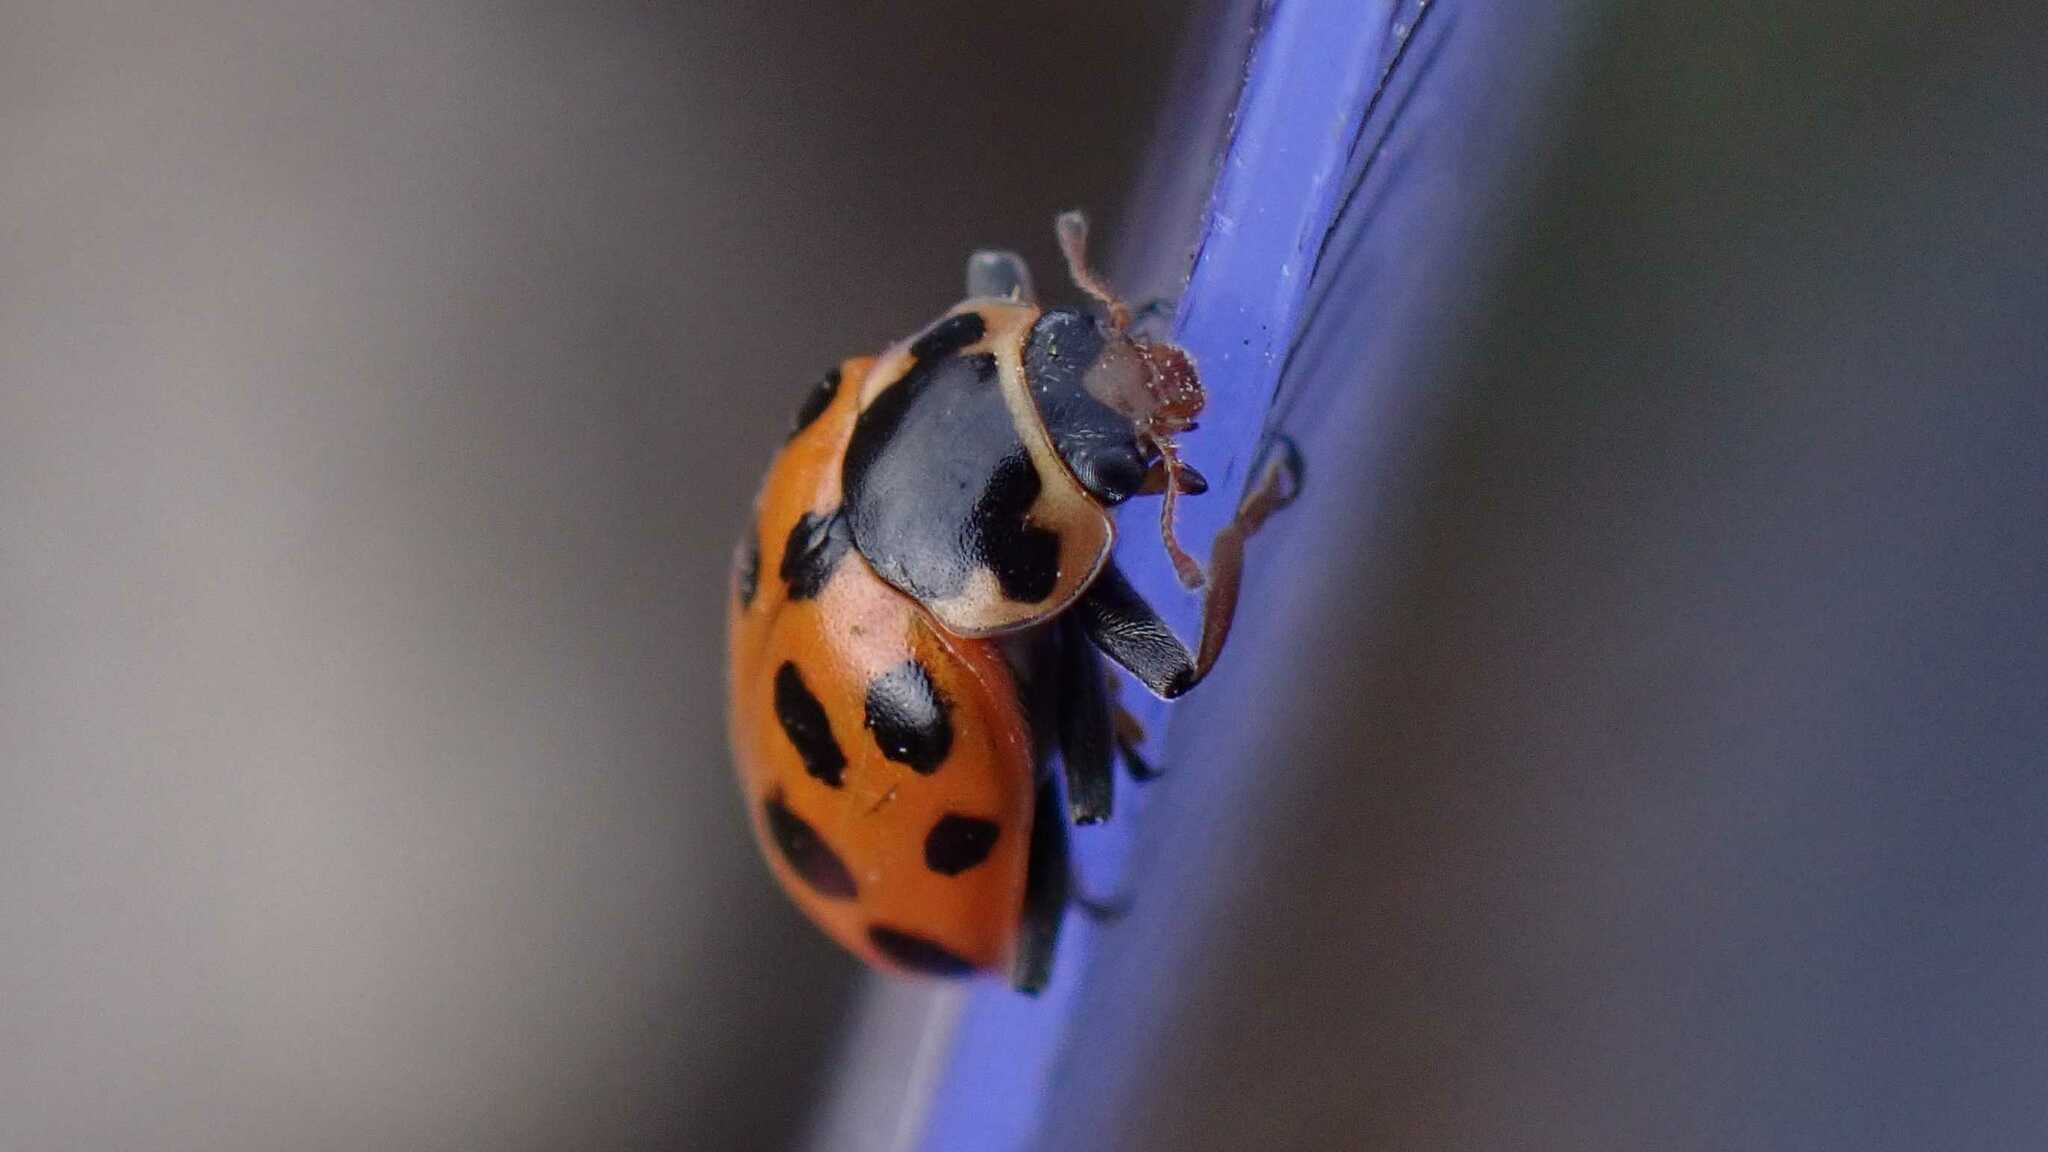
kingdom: Animalia
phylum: Arthropoda
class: Insecta
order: Coleoptera
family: Coccinellidae
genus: Hippodamia
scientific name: Hippodamia tredecimpunctata
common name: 13-spot ladybird
